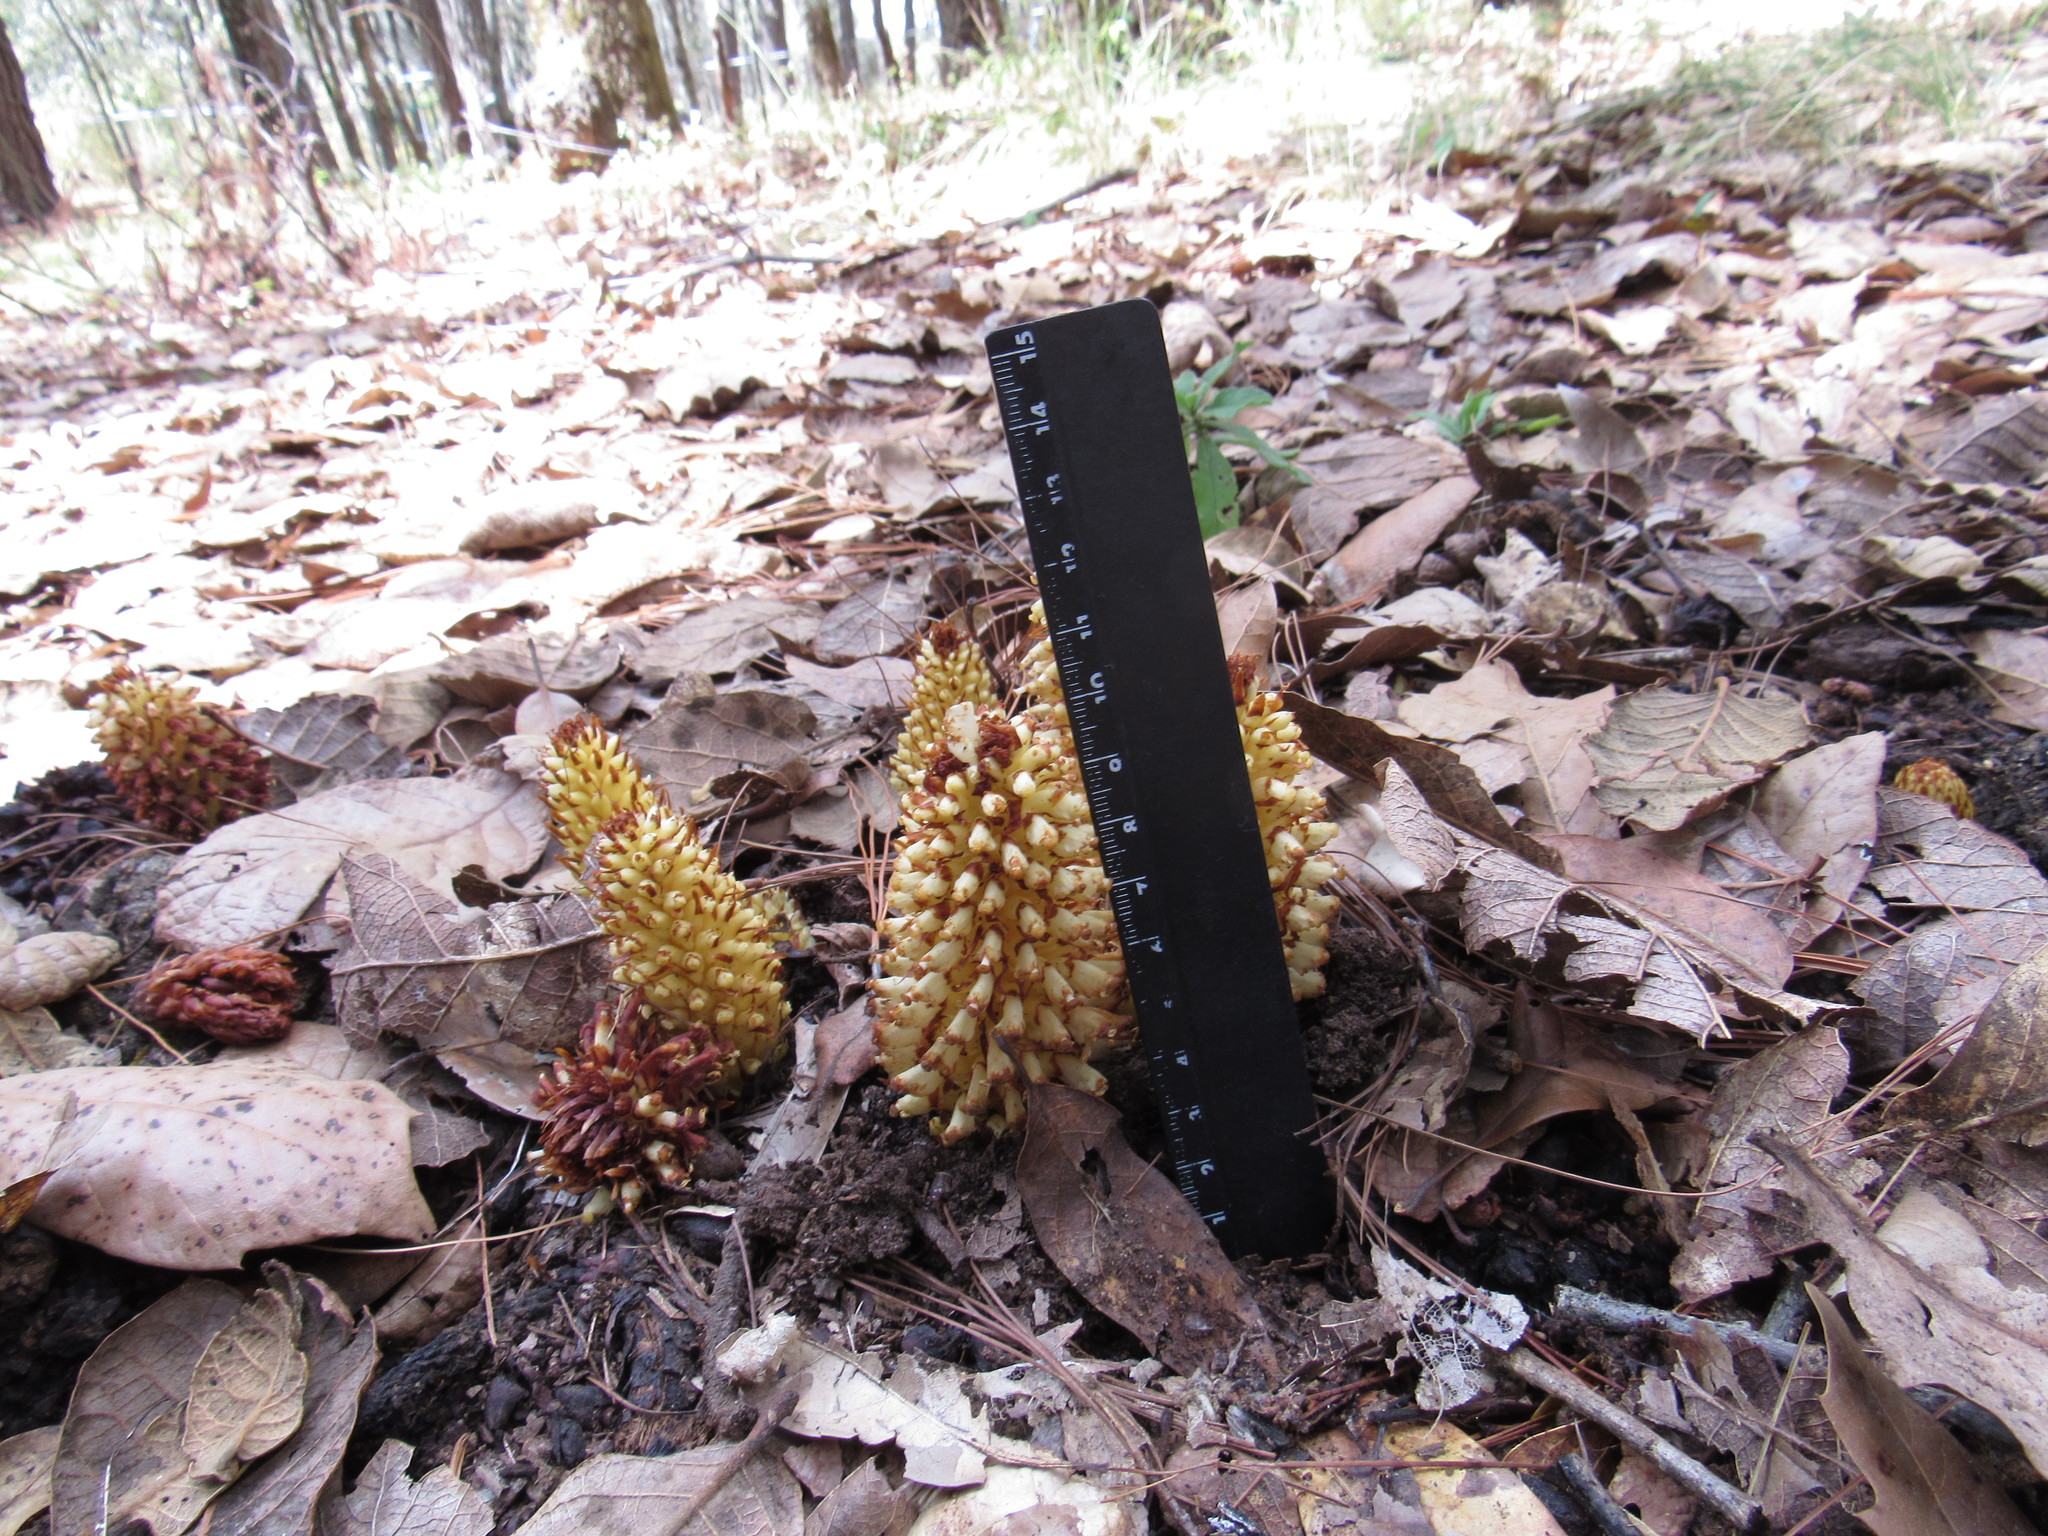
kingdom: Plantae
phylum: Tracheophyta
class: Magnoliopsida
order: Lamiales
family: Orobanchaceae
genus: Conopholis
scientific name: Conopholis alpina
